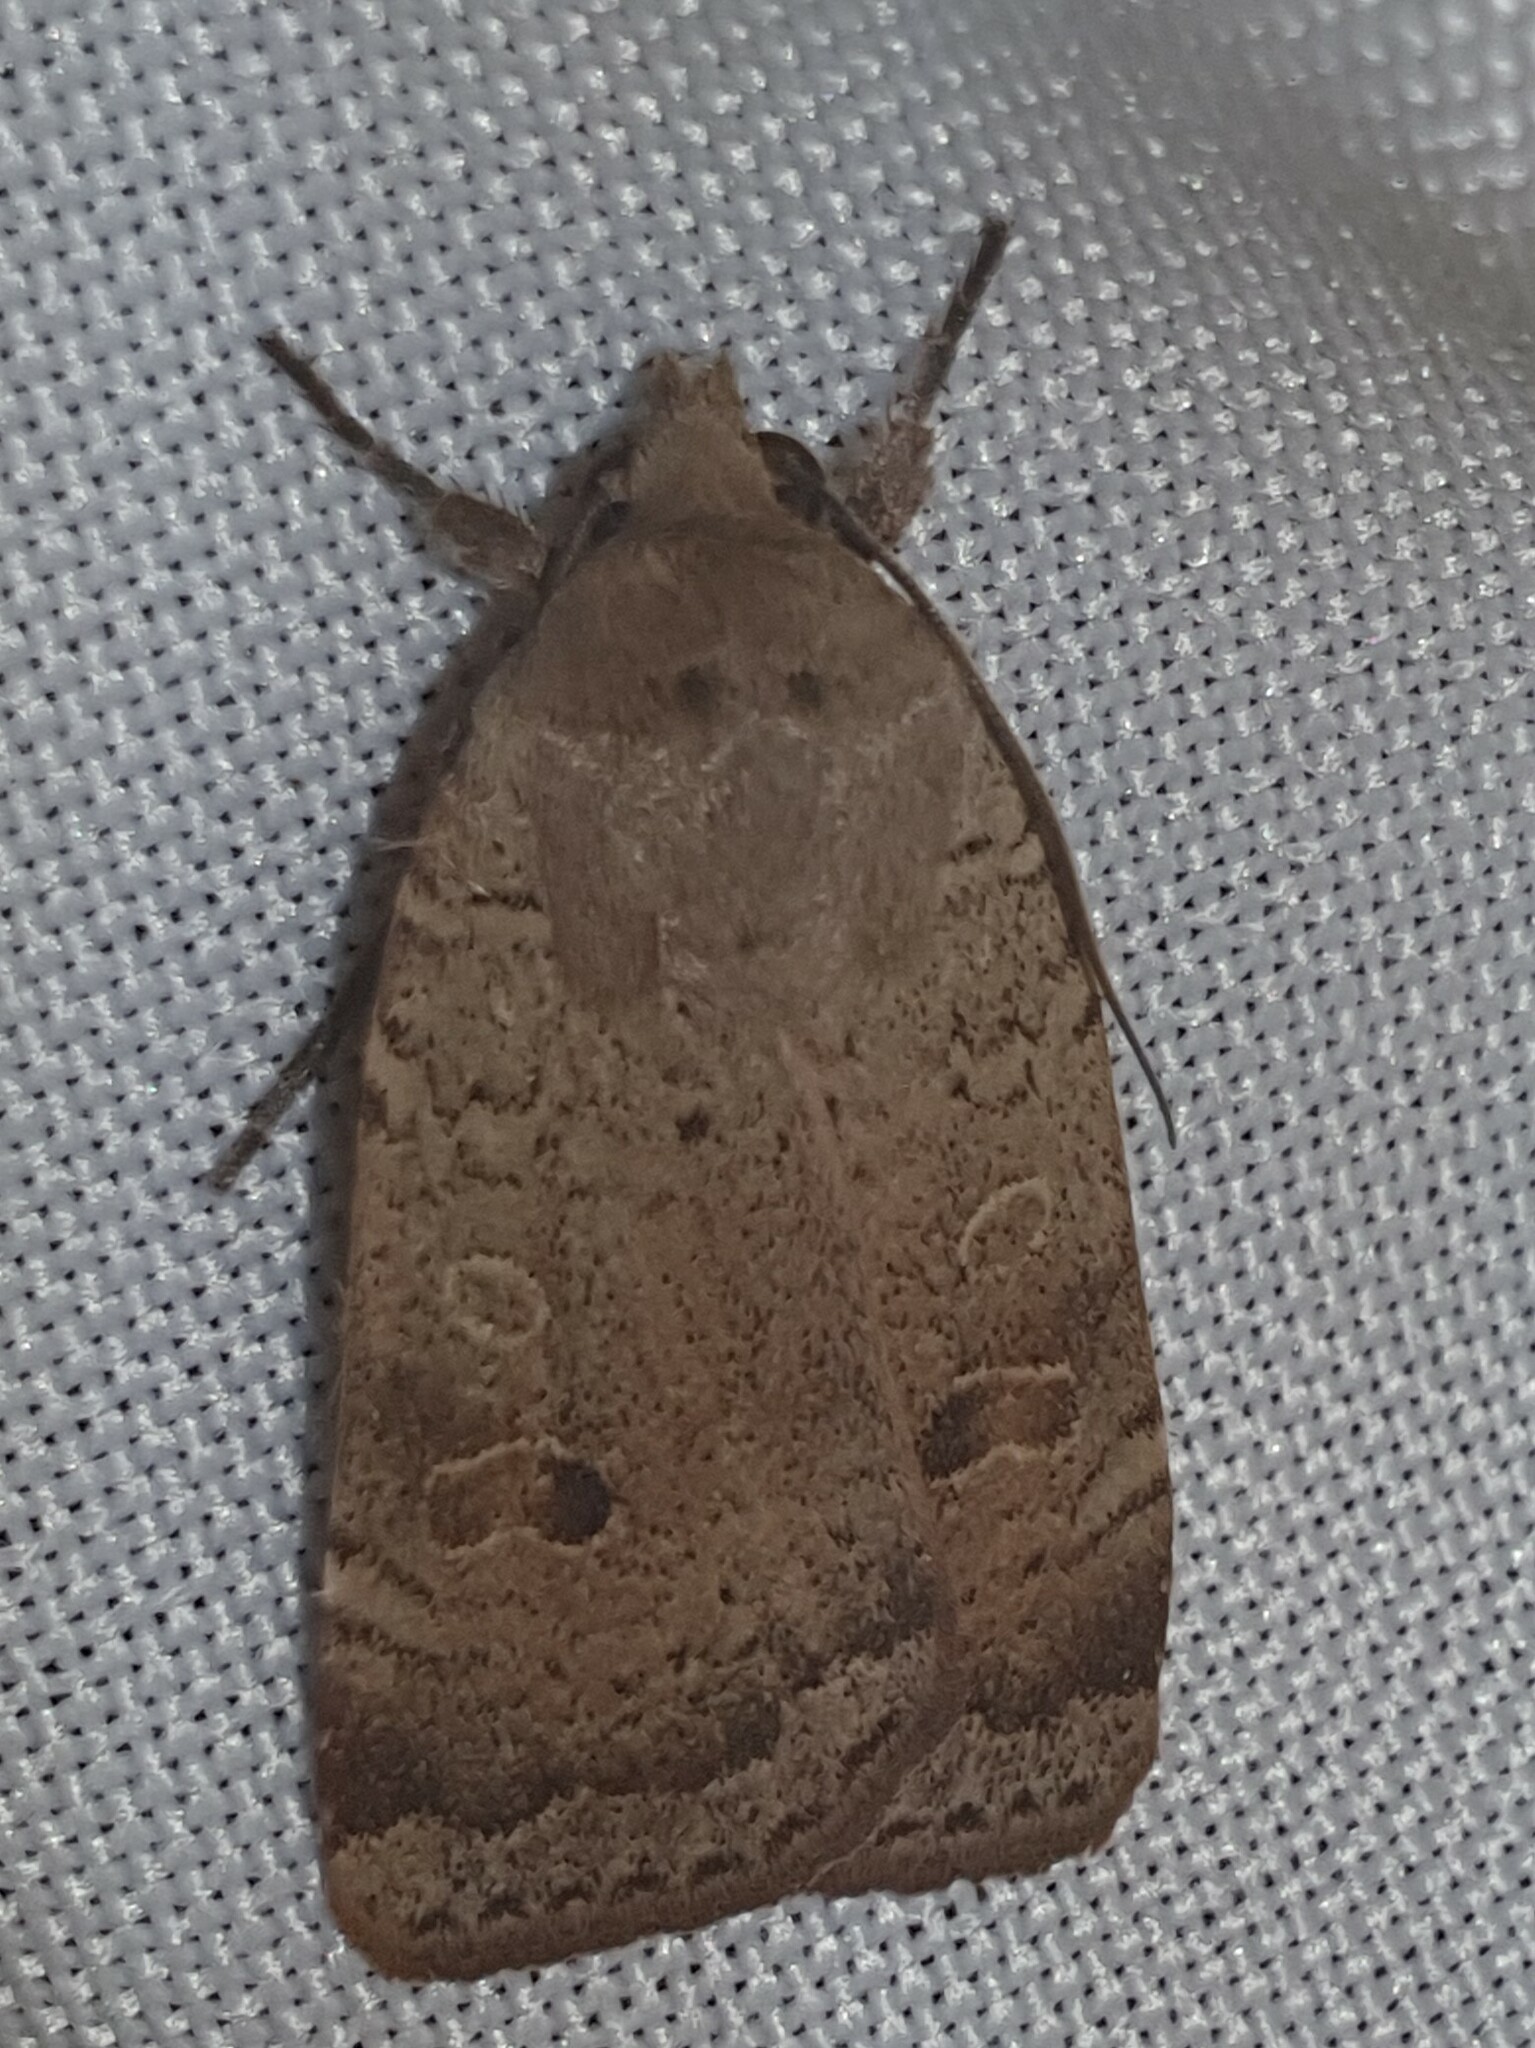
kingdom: Animalia
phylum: Arthropoda
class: Insecta
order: Lepidoptera
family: Noctuidae
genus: Noctua
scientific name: Noctua comes
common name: Lesser yellow underwing
